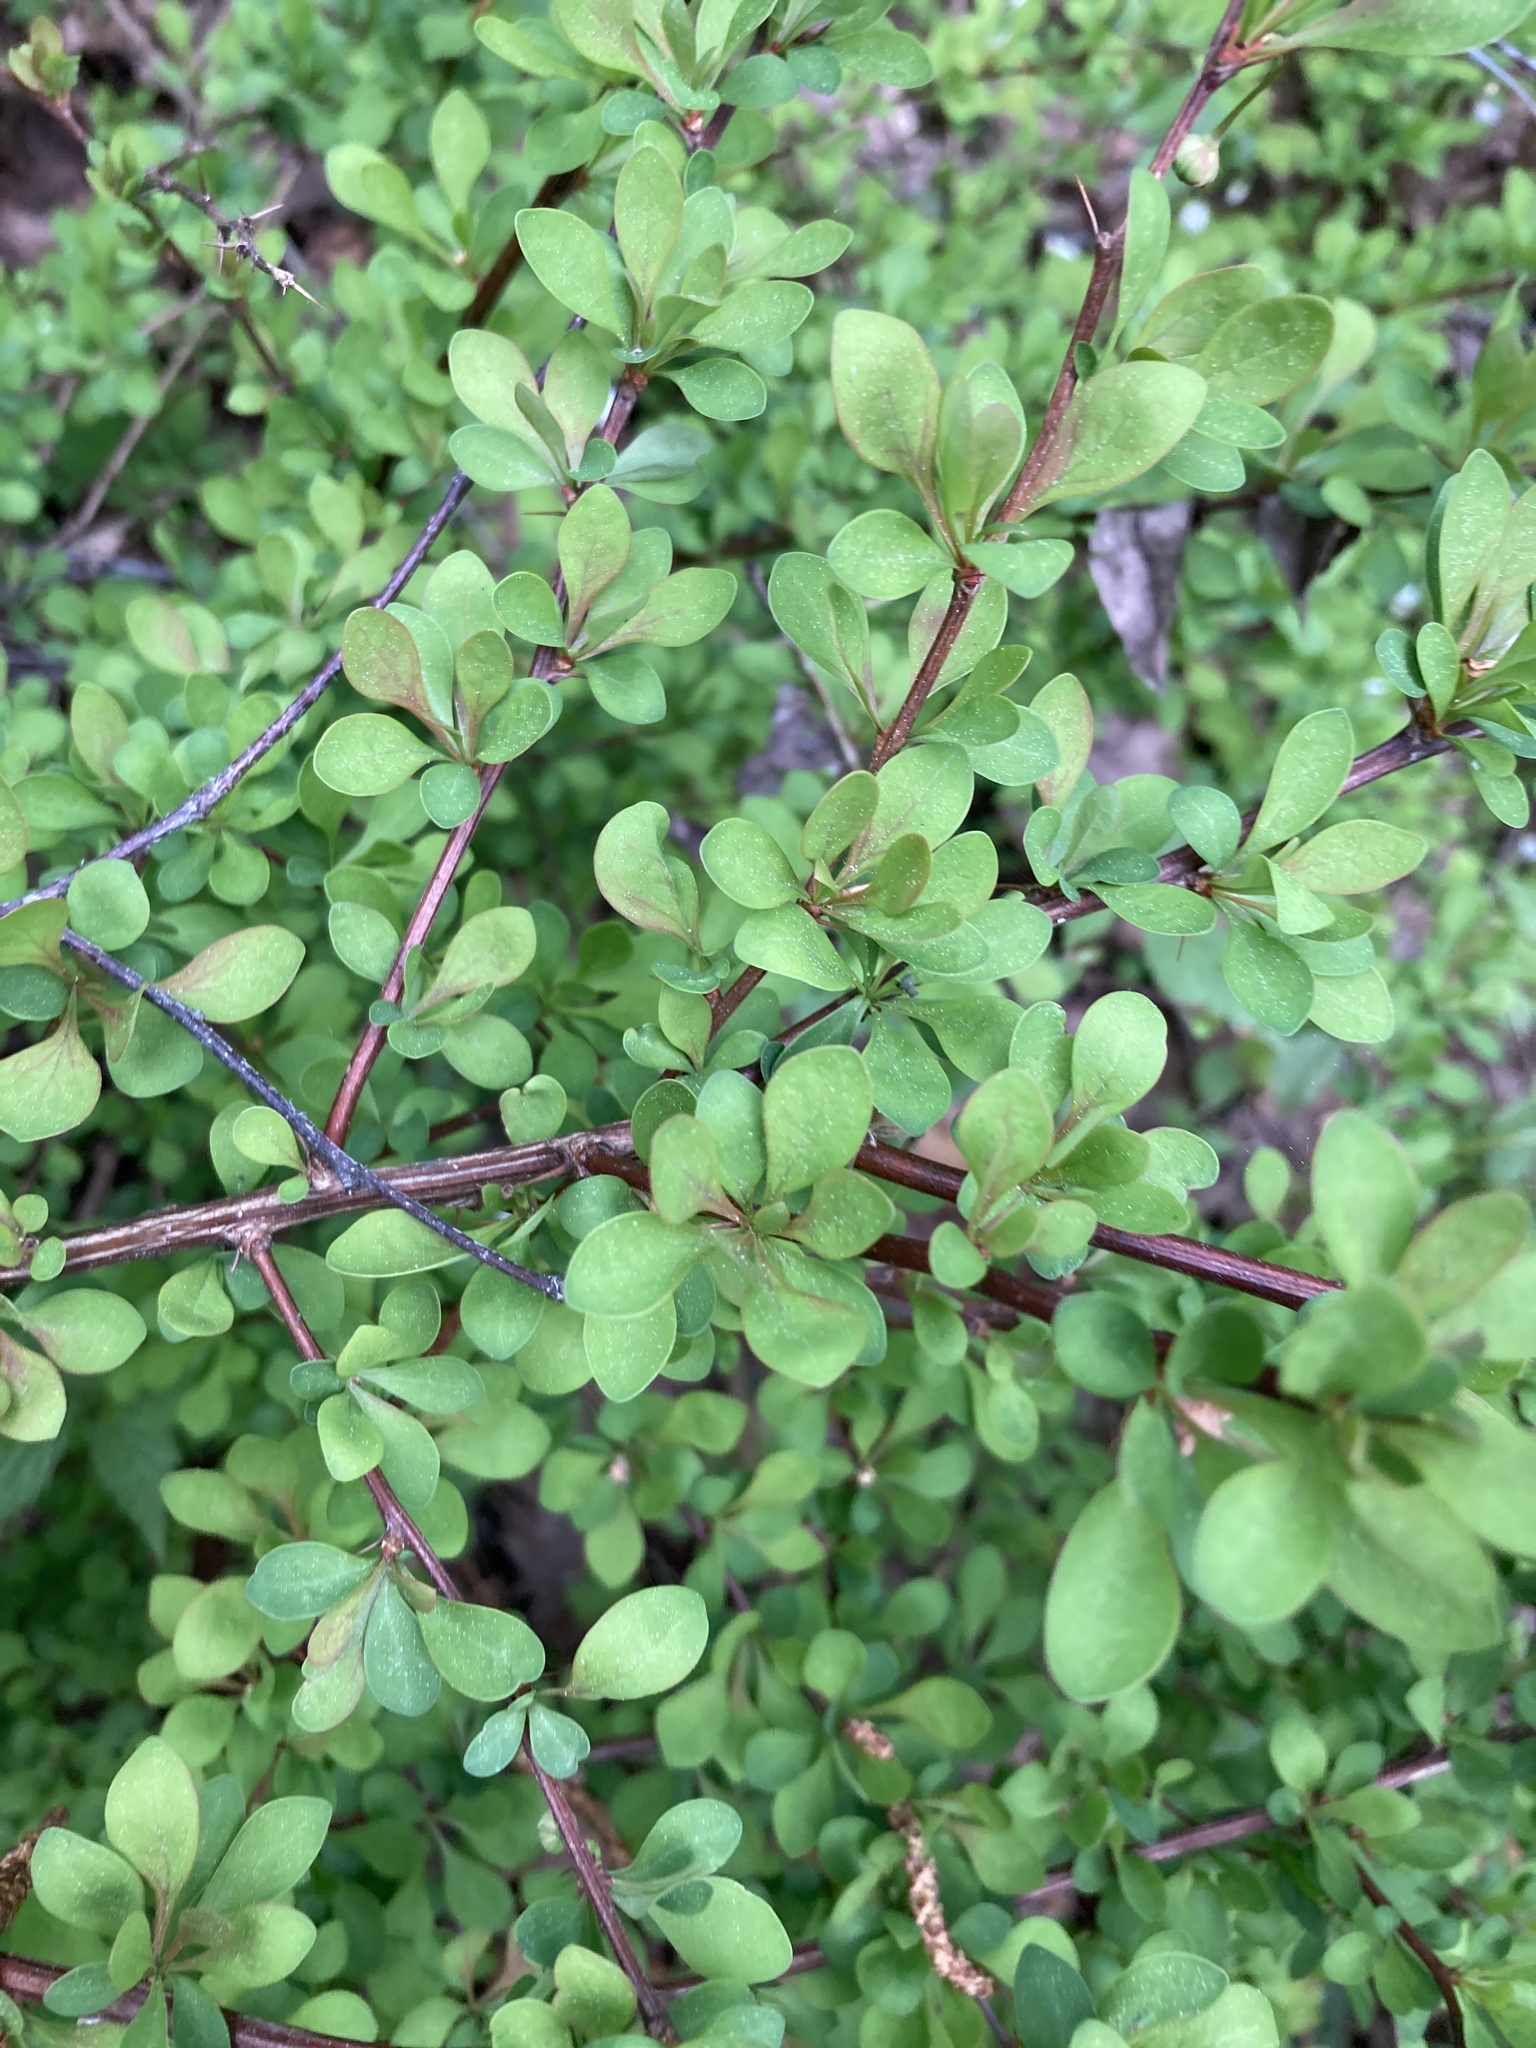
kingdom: Plantae
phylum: Tracheophyta
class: Magnoliopsida
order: Ranunculales
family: Berberidaceae
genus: Berberis
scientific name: Berberis thunbergii
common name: Japanese barberry
